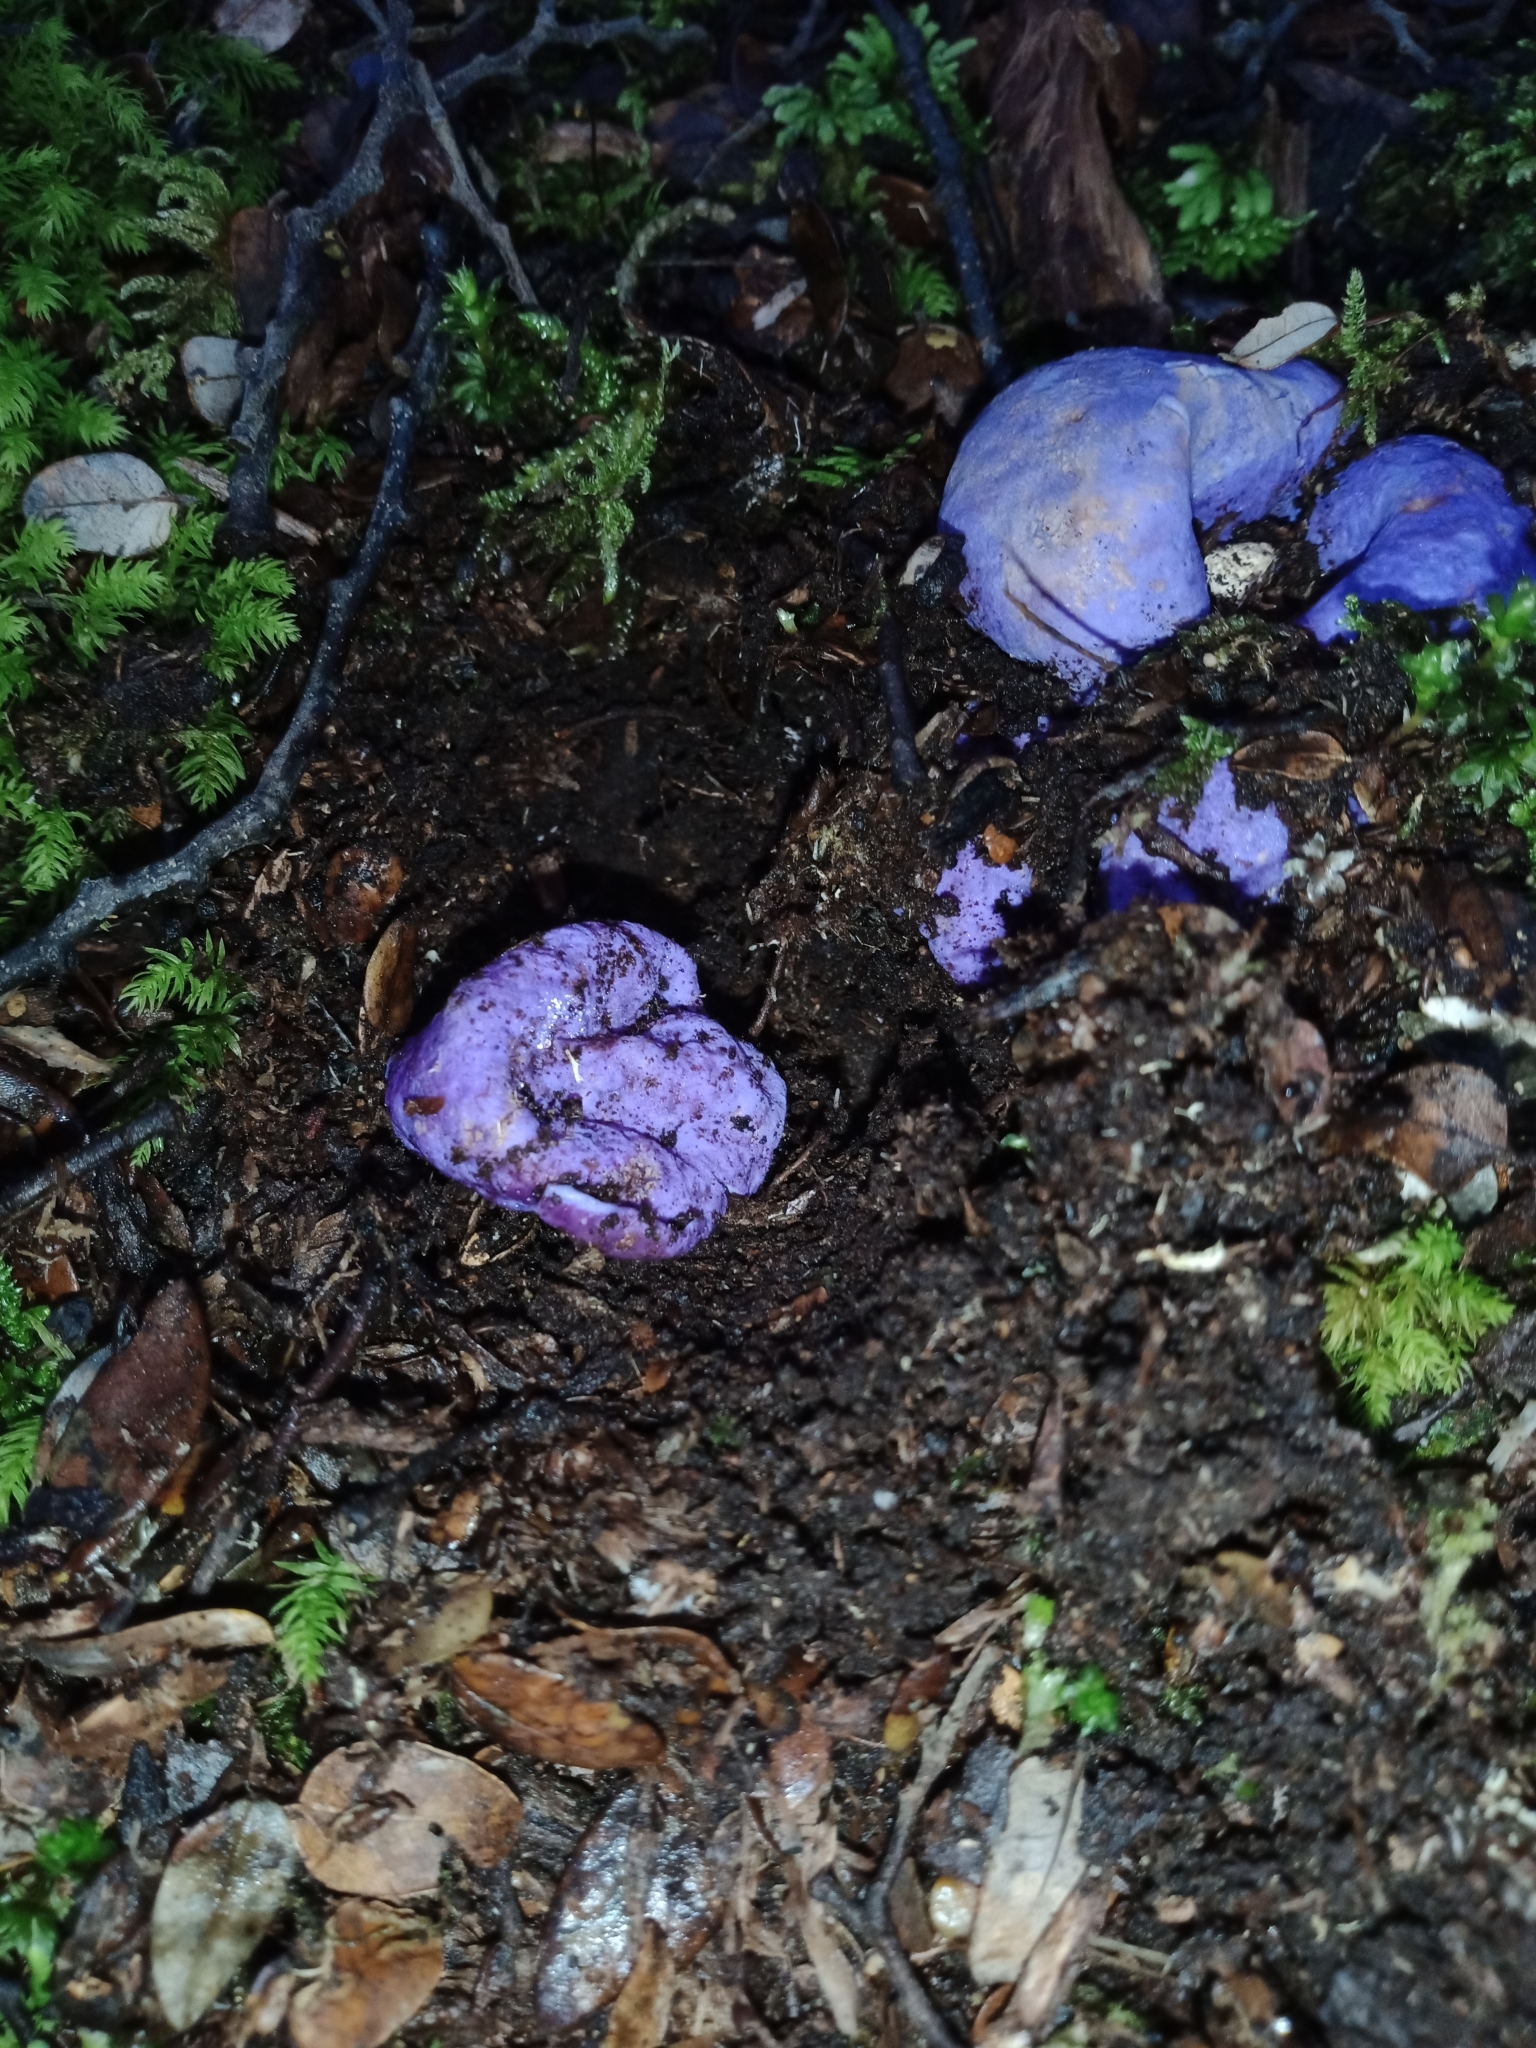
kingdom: Fungi
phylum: Basidiomycota
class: Agaricomycetes
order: Hysterangiales
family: Gallaceaceae
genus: Gallacea
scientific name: Gallacea scleroderma
